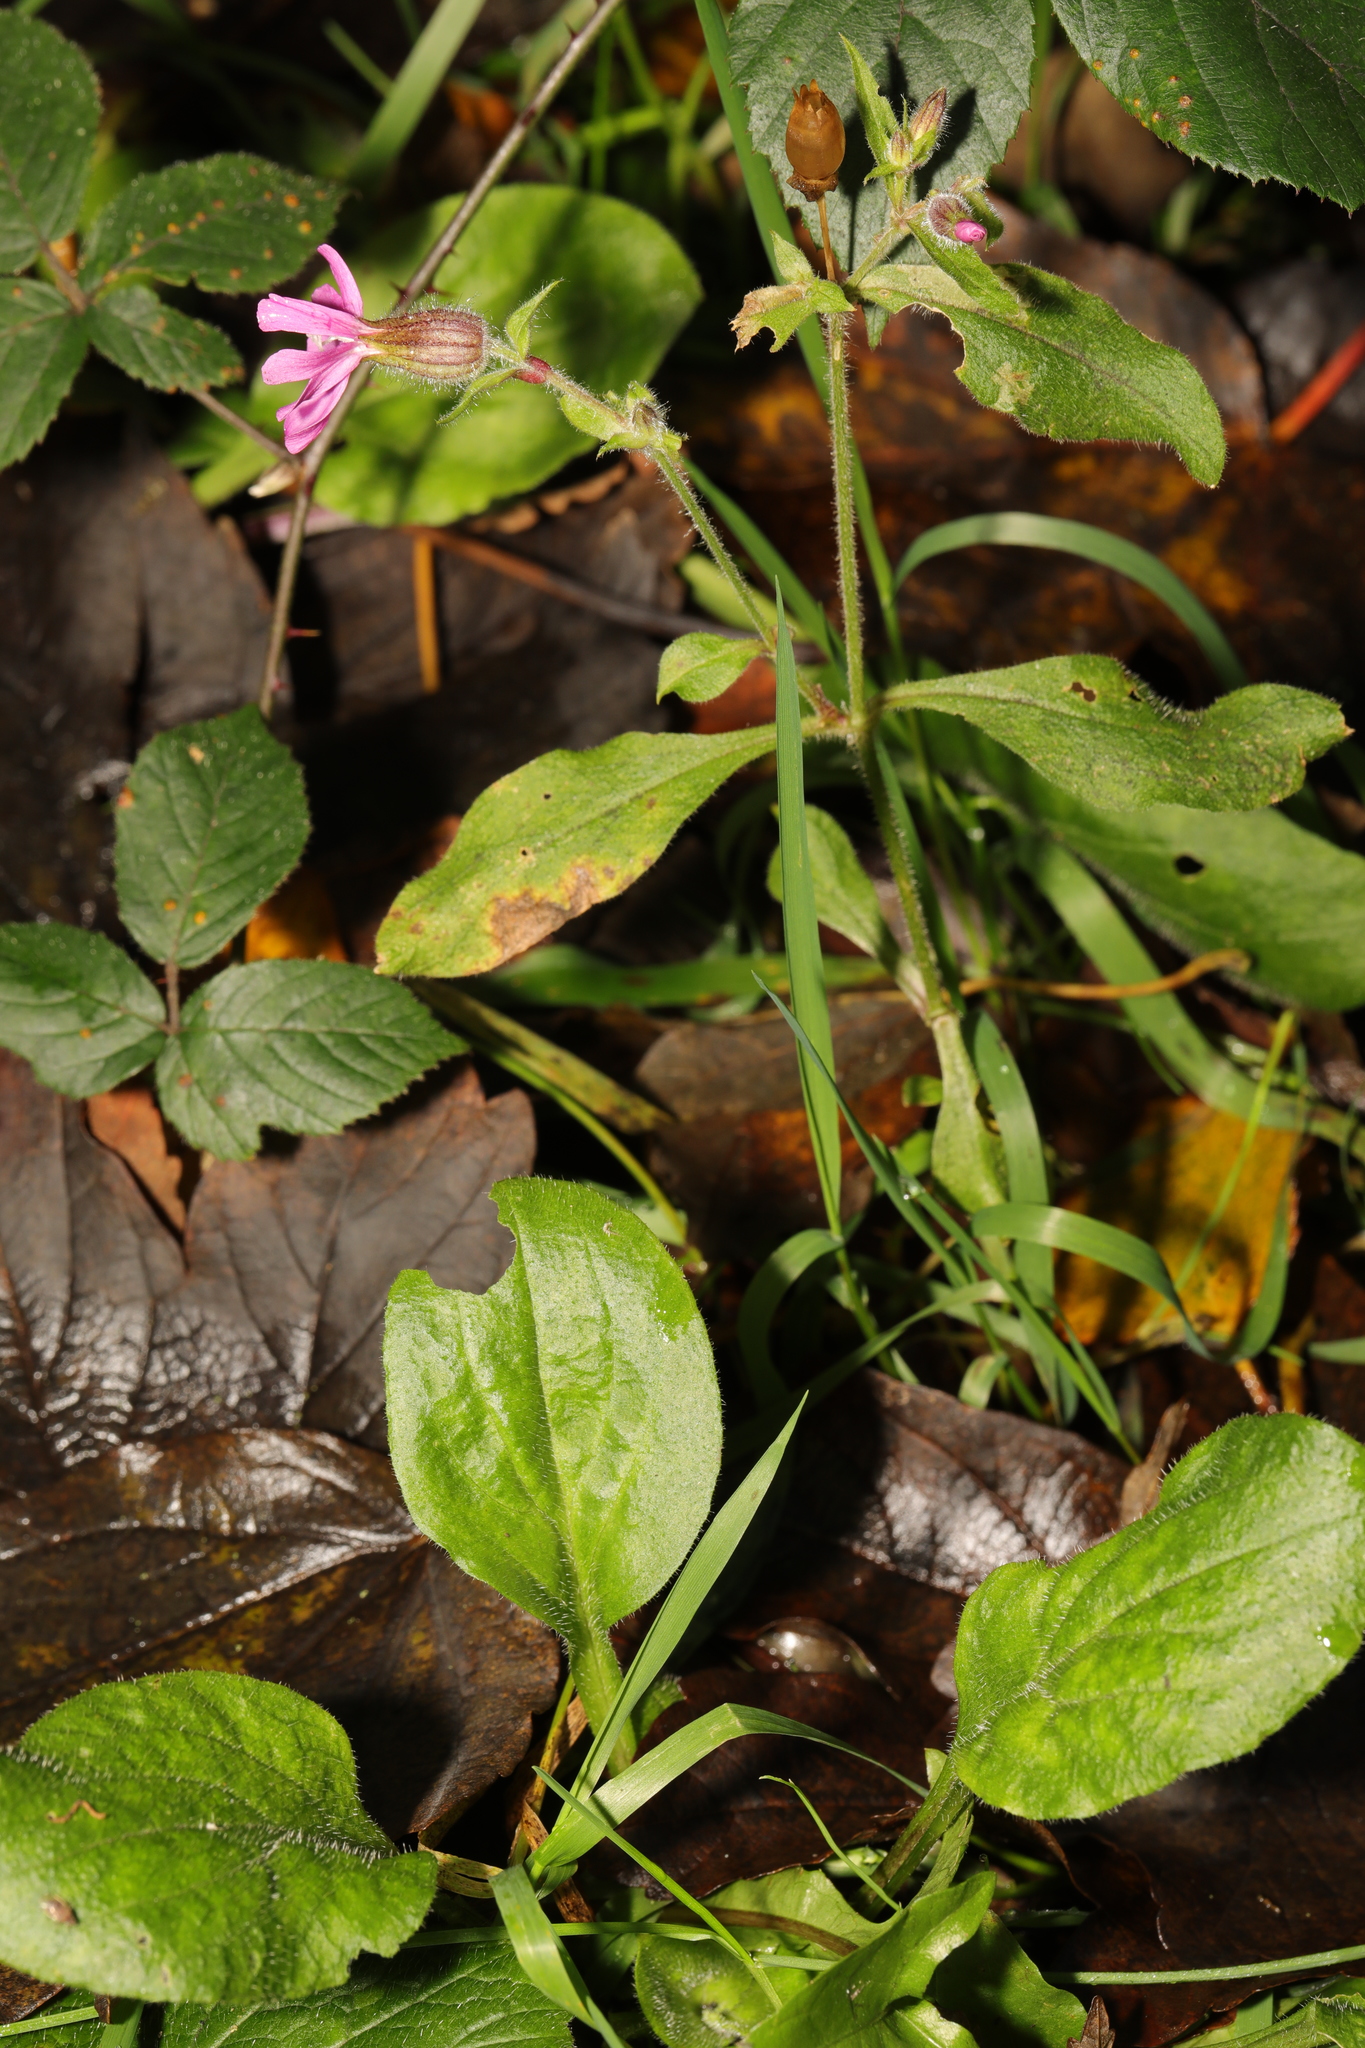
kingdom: Plantae
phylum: Tracheophyta
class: Magnoliopsida
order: Caryophyllales
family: Caryophyllaceae
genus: Silene
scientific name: Silene dioica
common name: Red campion
